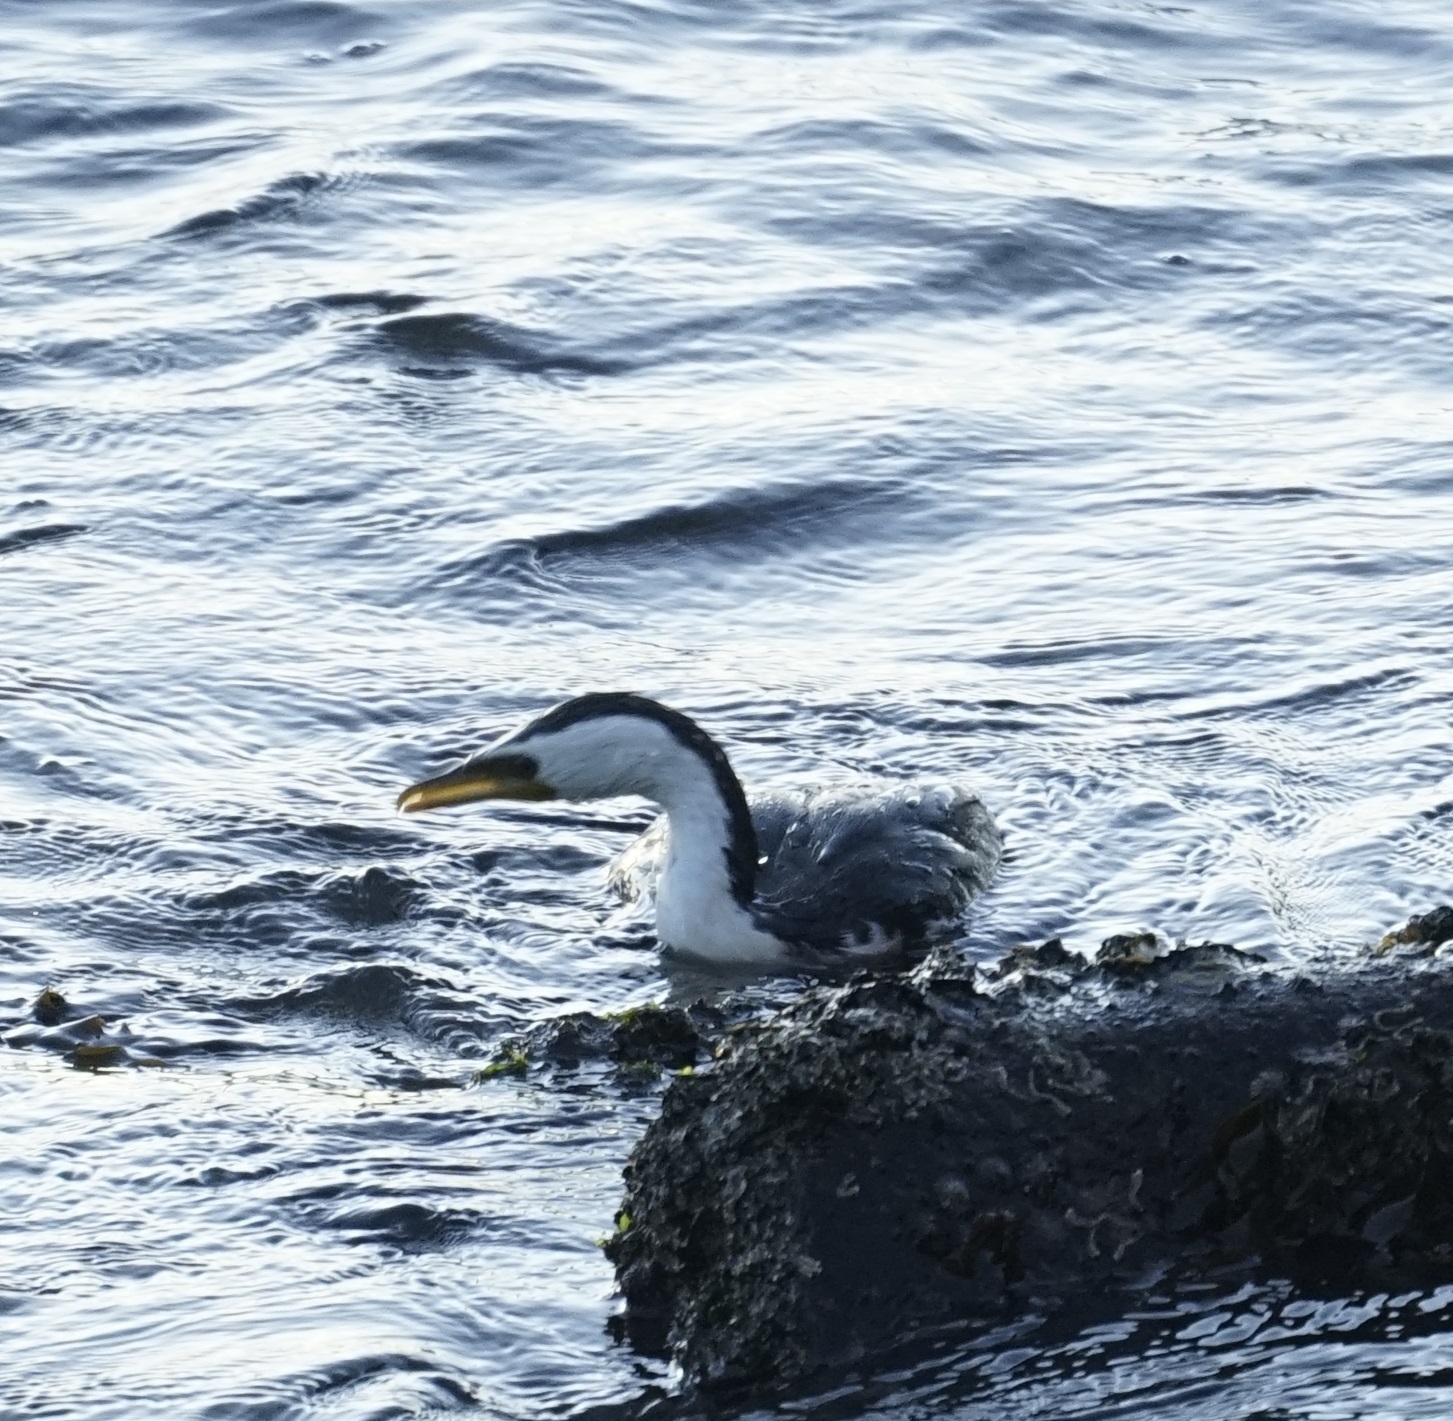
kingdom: Animalia
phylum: Chordata
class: Aves
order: Suliformes
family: Phalacrocoracidae
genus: Microcarbo
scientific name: Microcarbo melanoleucos
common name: Little pied cormorant
